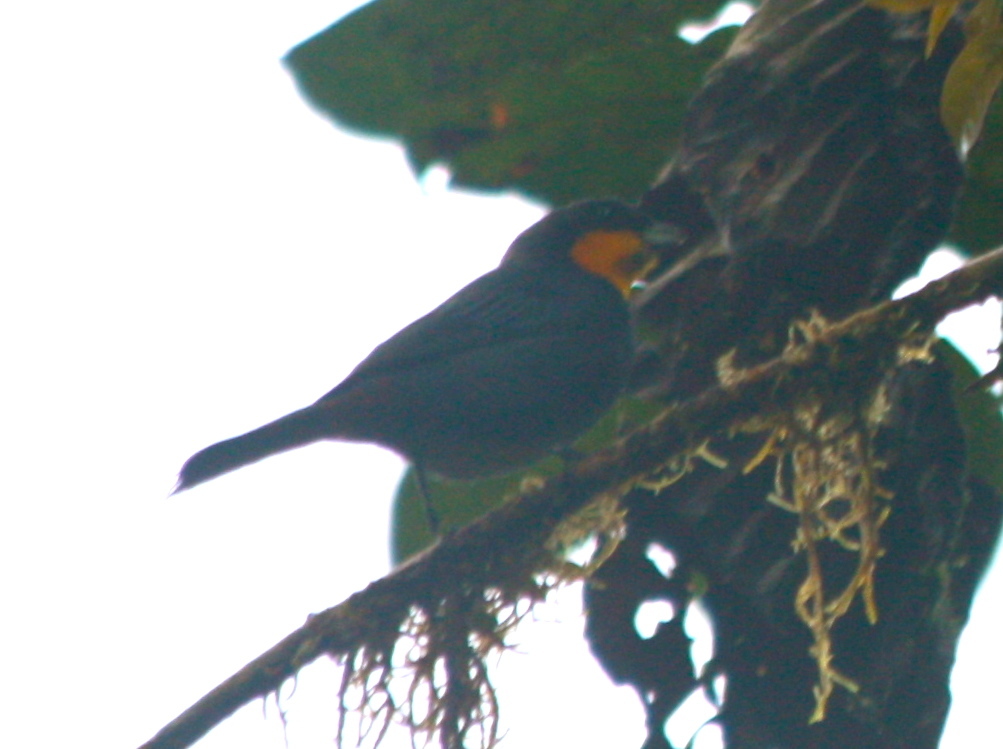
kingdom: Animalia
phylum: Chordata
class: Aves
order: Passeriformes
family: Thraupidae
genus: Iridosornis
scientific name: Iridosornis porphyrocephalus
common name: Purplish-mantled tanager
